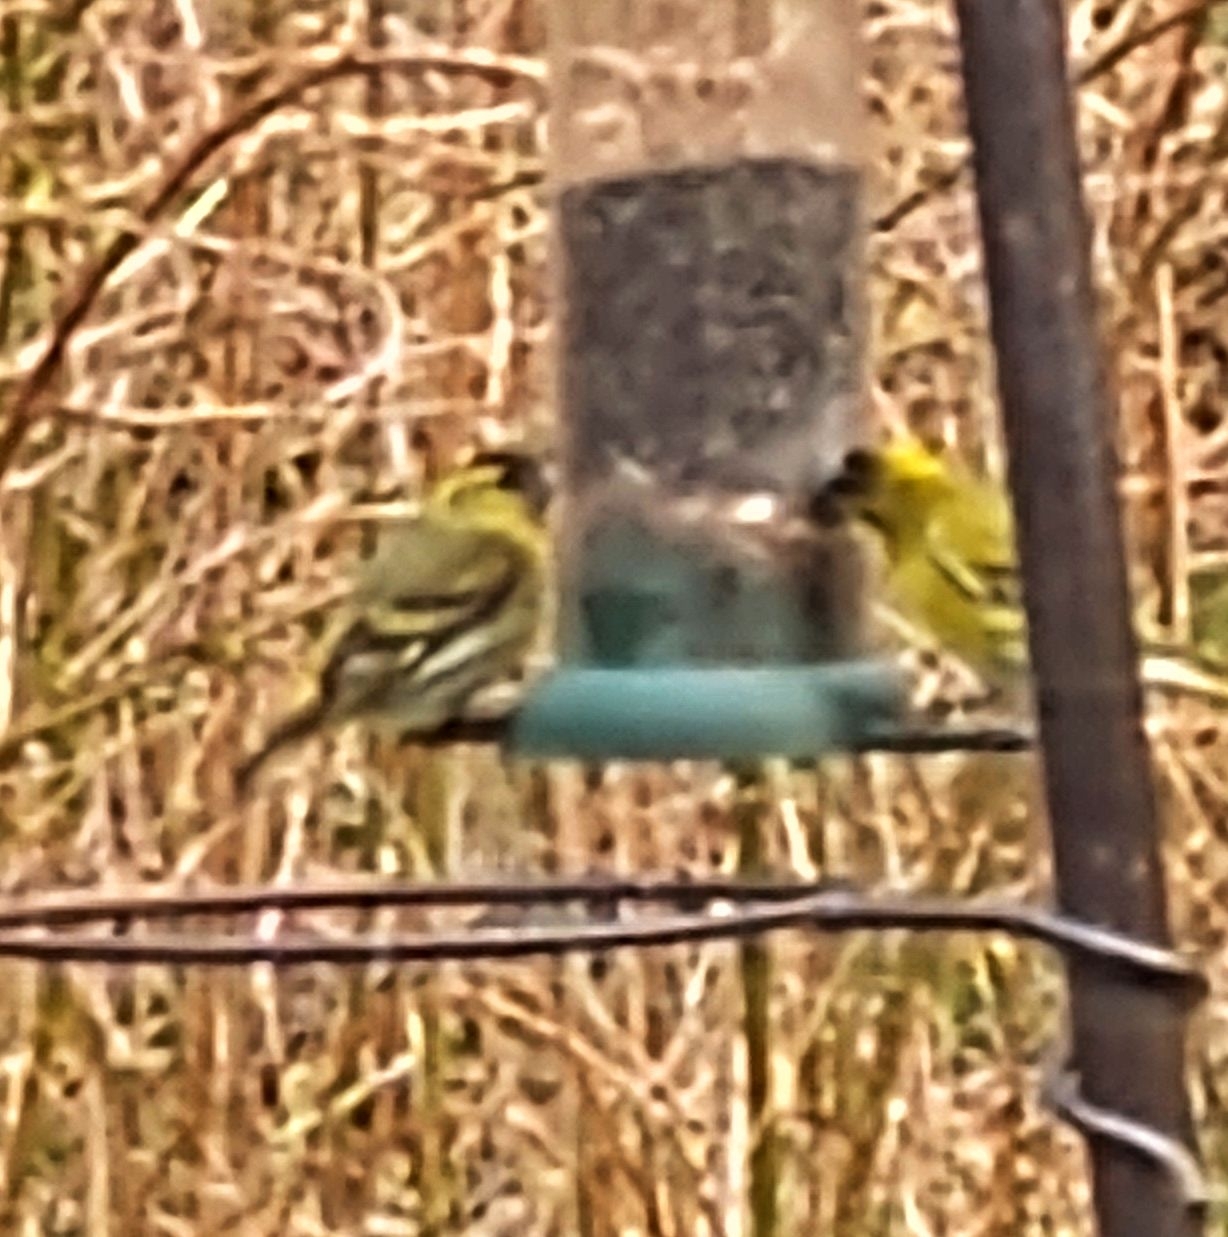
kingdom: Animalia
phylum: Chordata
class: Aves
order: Passeriformes
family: Fringillidae
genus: Spinus
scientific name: Spinus spinus
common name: Eurasian siskin
